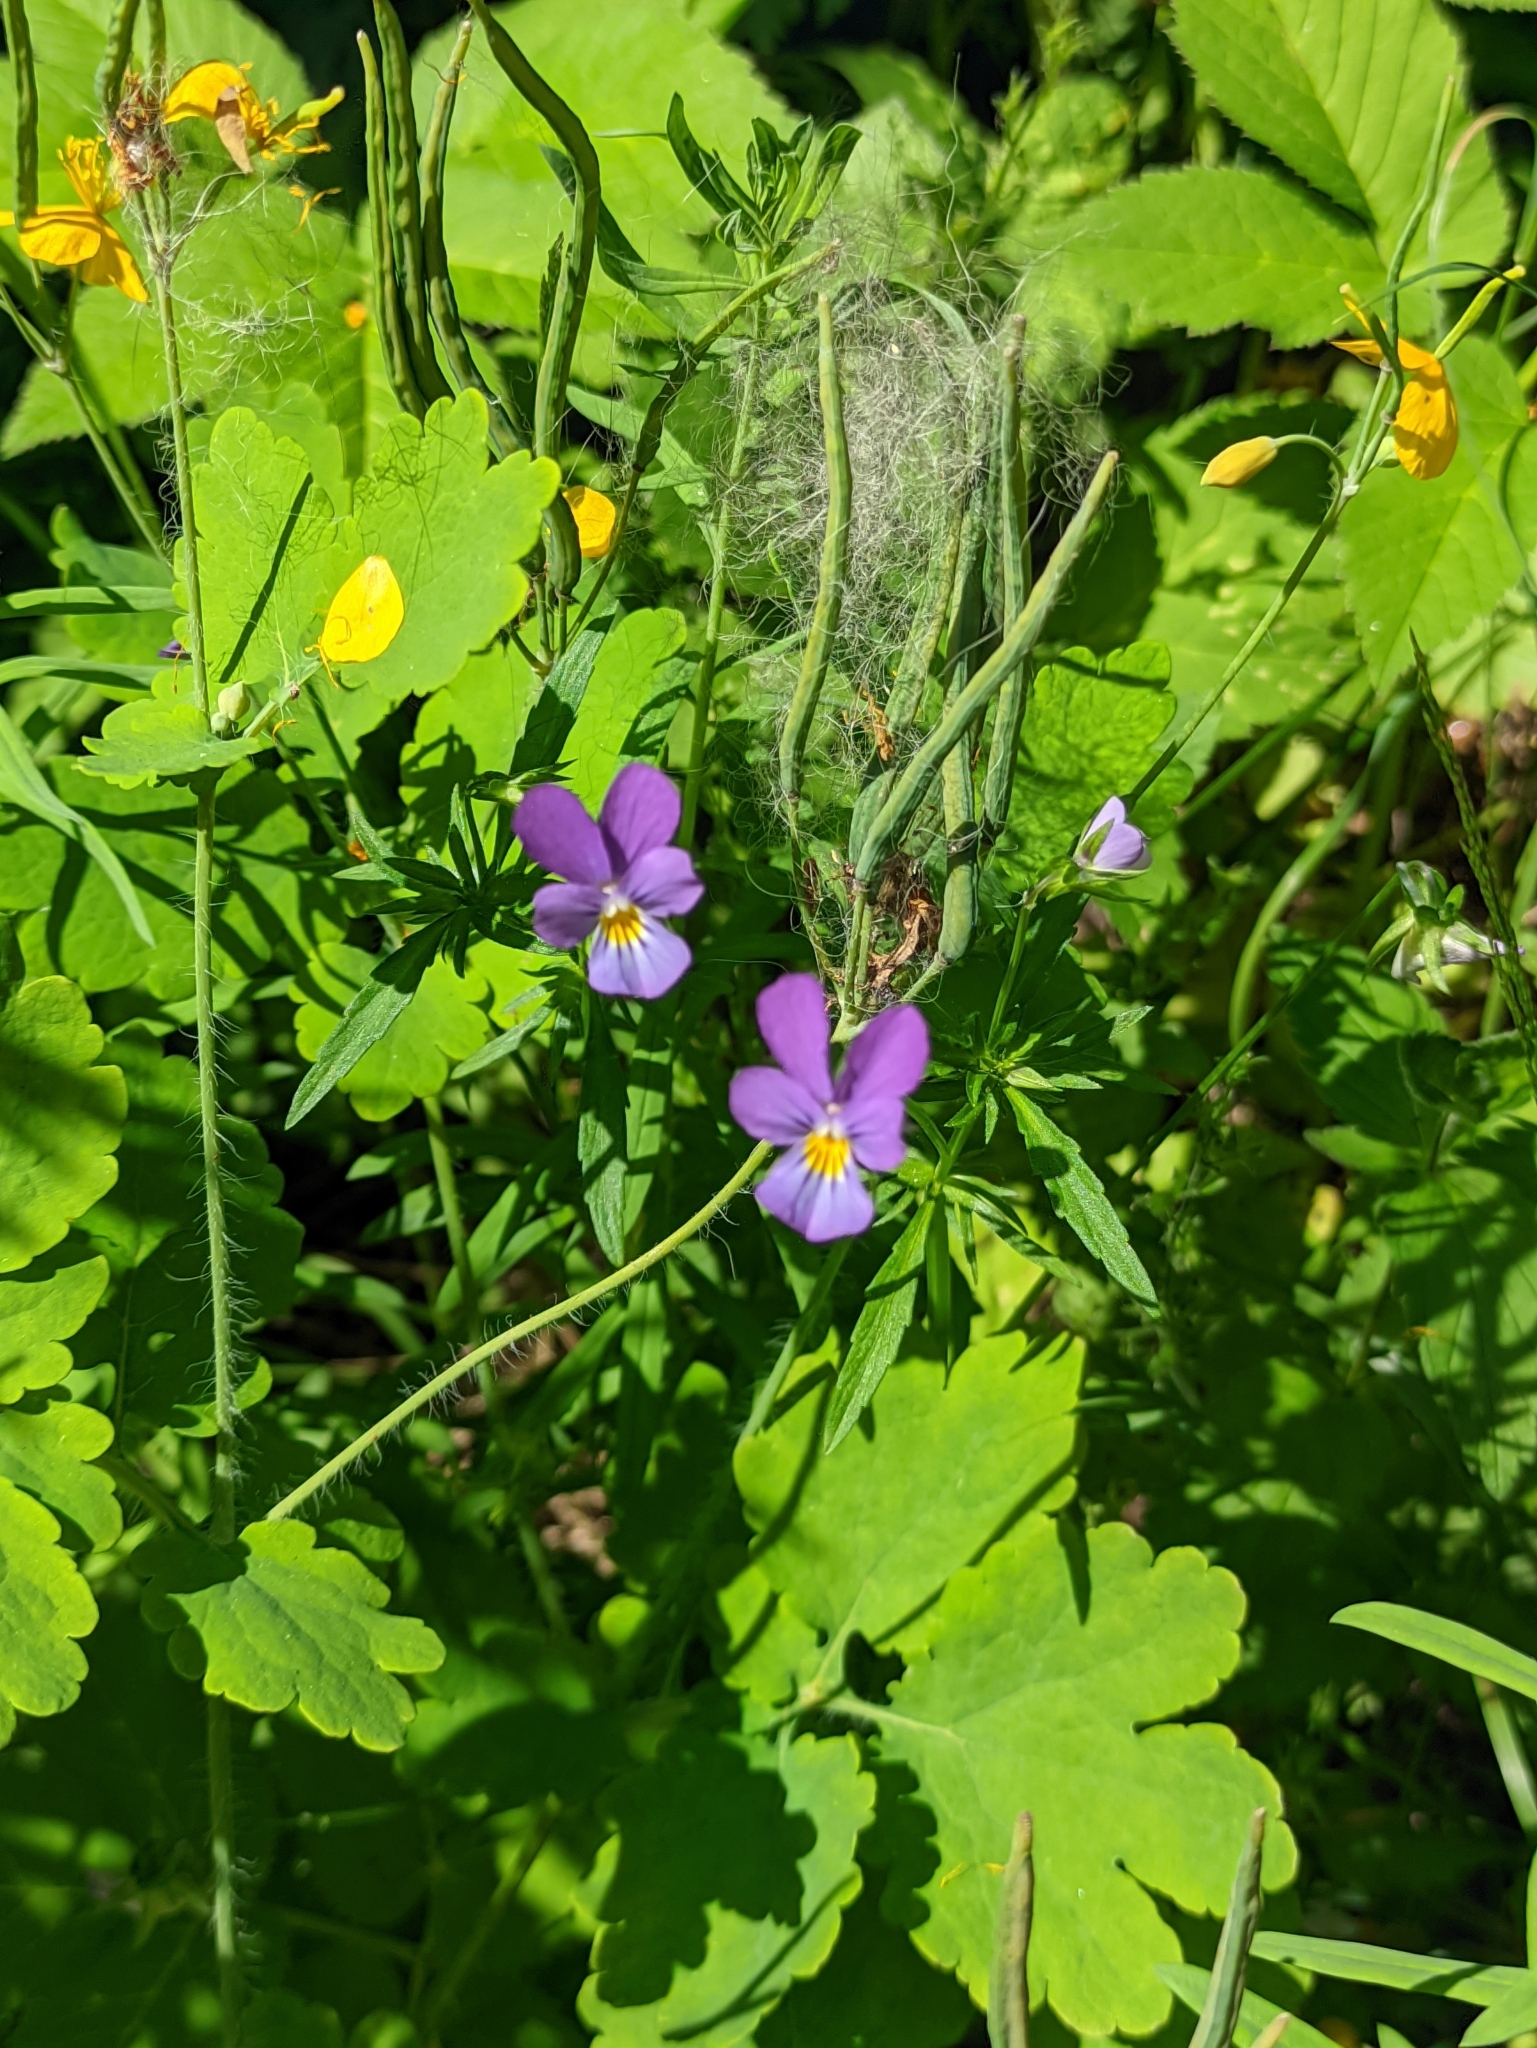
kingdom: Plantae
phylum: Tracheophyta
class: Magnoliopsida
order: Malpighiales
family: Violaceae
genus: Viola
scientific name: Viola tricolor
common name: Pansy
